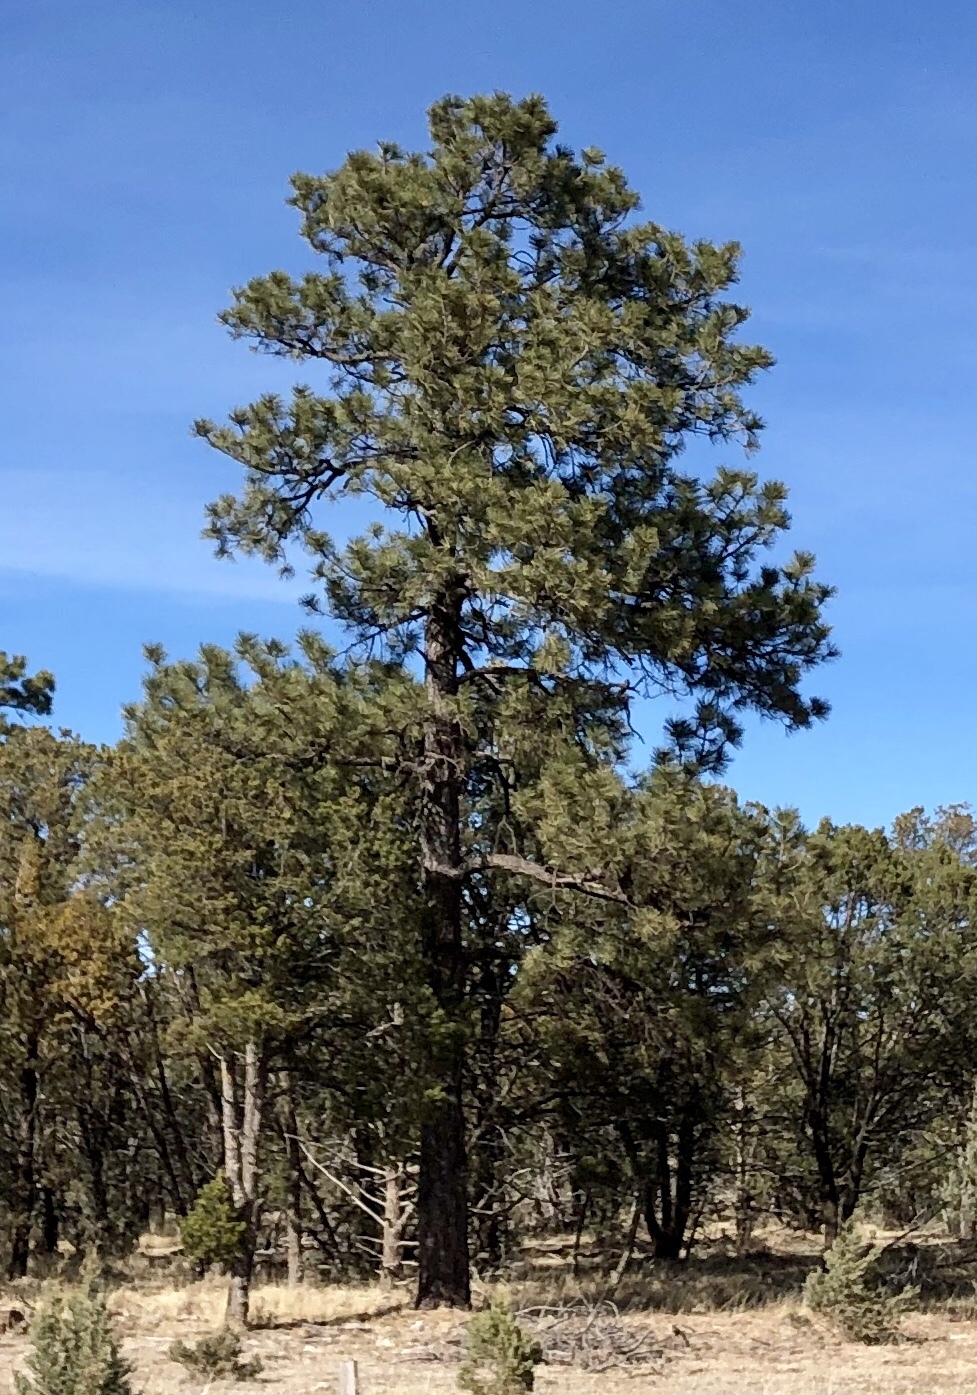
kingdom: Plantae
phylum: Tracheophyta
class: Pinopsida
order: Pinales
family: Pinaceae
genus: Pinus
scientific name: Pinus ponderosa
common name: Western yellow-pine
